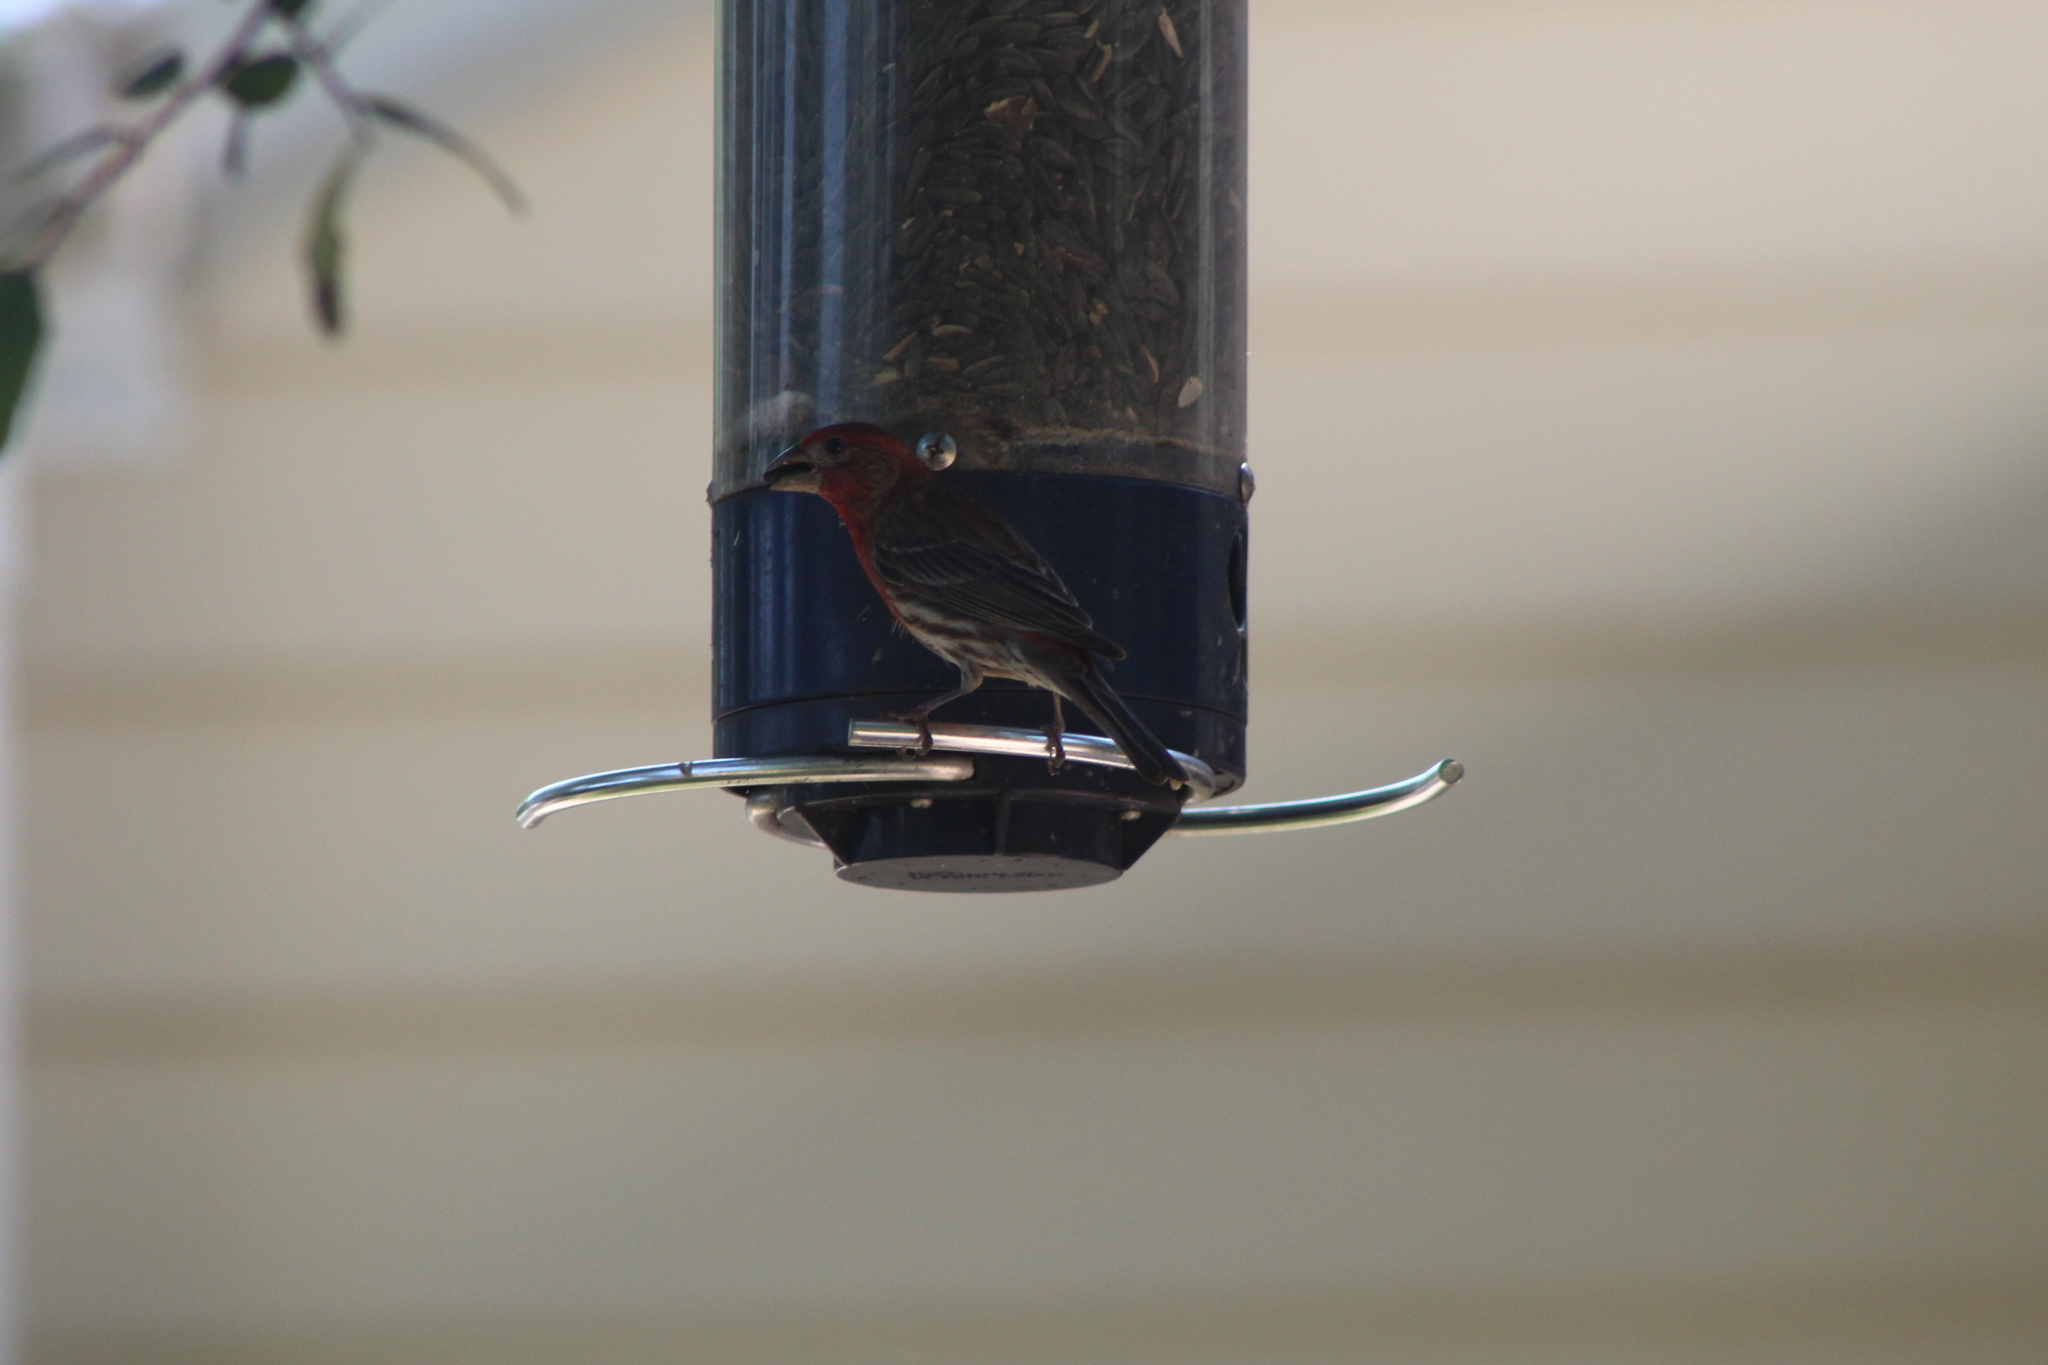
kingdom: Animalia
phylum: Chordata
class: Aves
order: Passeriformes
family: Fringillidae
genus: Haemorhous
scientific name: Haemorhous mexicanus
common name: House finch
